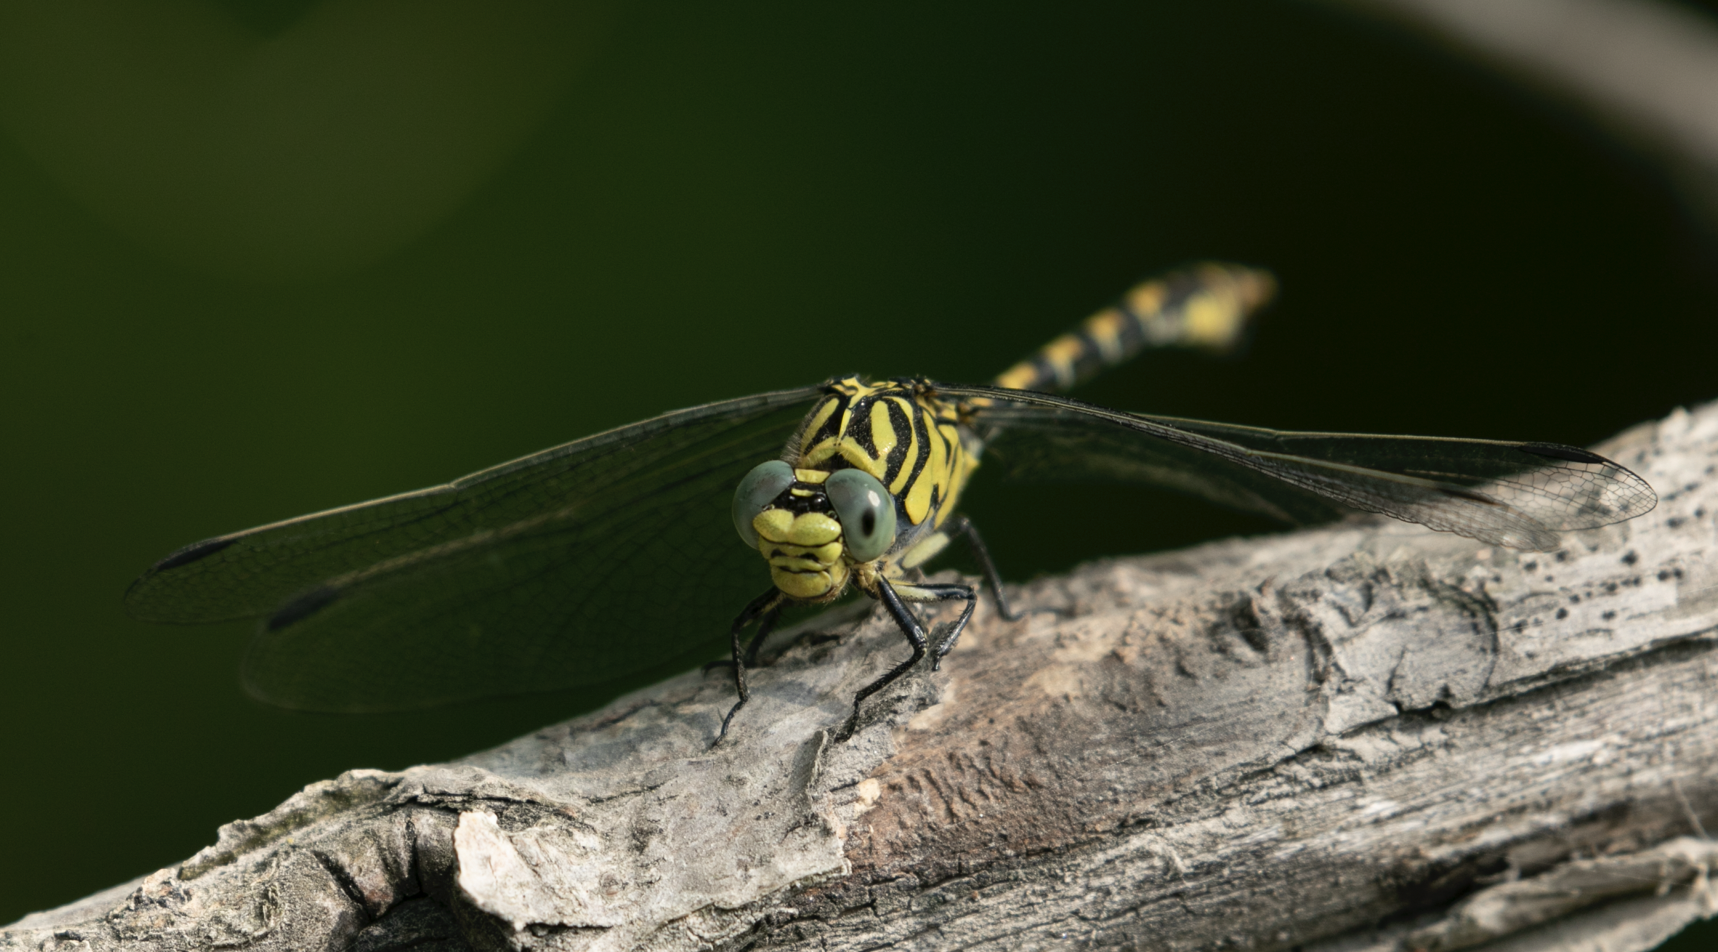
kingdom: Animalia
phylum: Arthropoda
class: Insecta
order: Odonata
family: Gomphidae
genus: Onychogomphus
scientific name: Onychogomphus forcipatus
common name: Small pincertail
